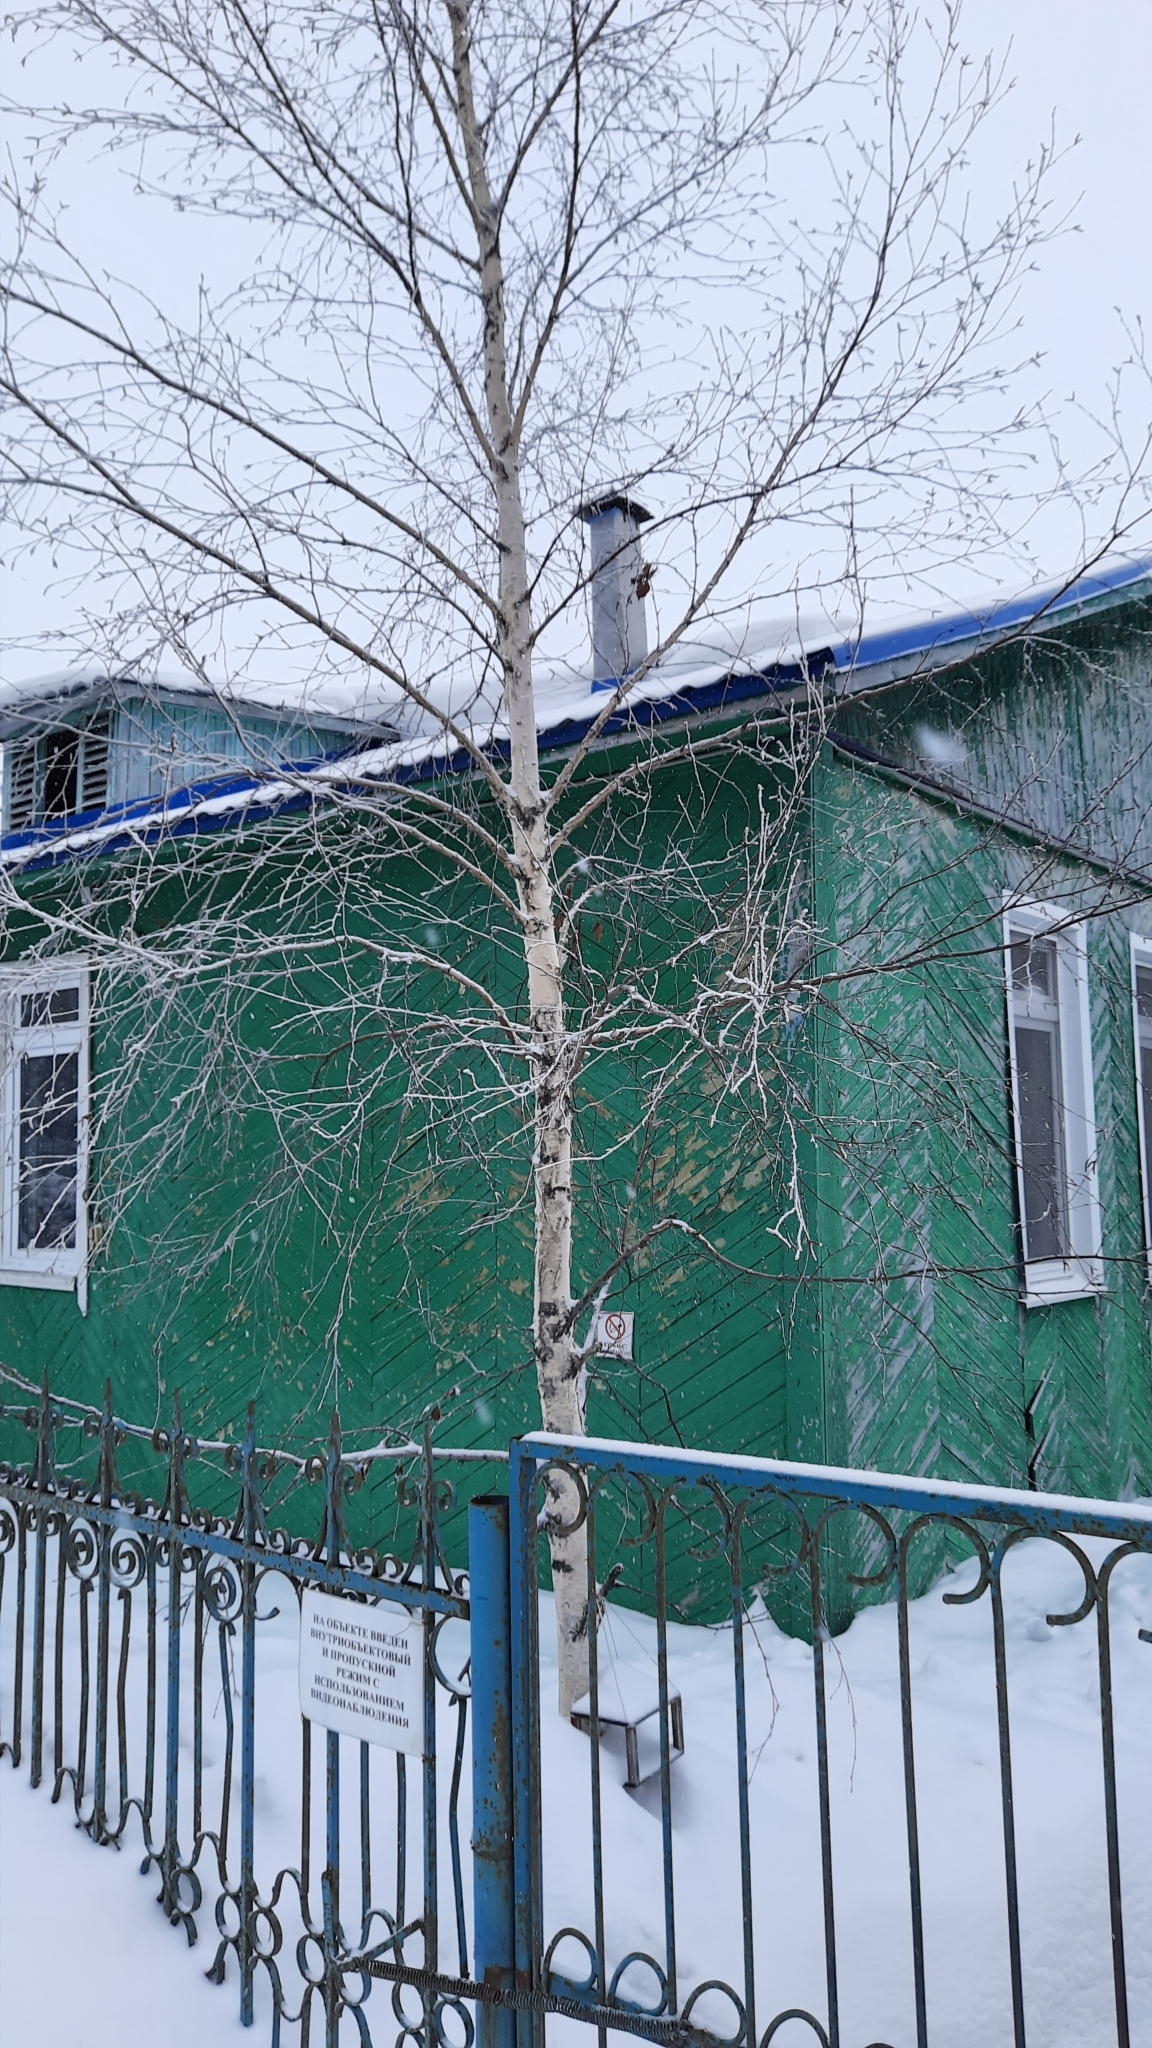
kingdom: Plantae
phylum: Tracheophyta
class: Magnoliopsida
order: Fagales
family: Betulaceae
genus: Betula
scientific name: Betula pendula
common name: Silver birch
